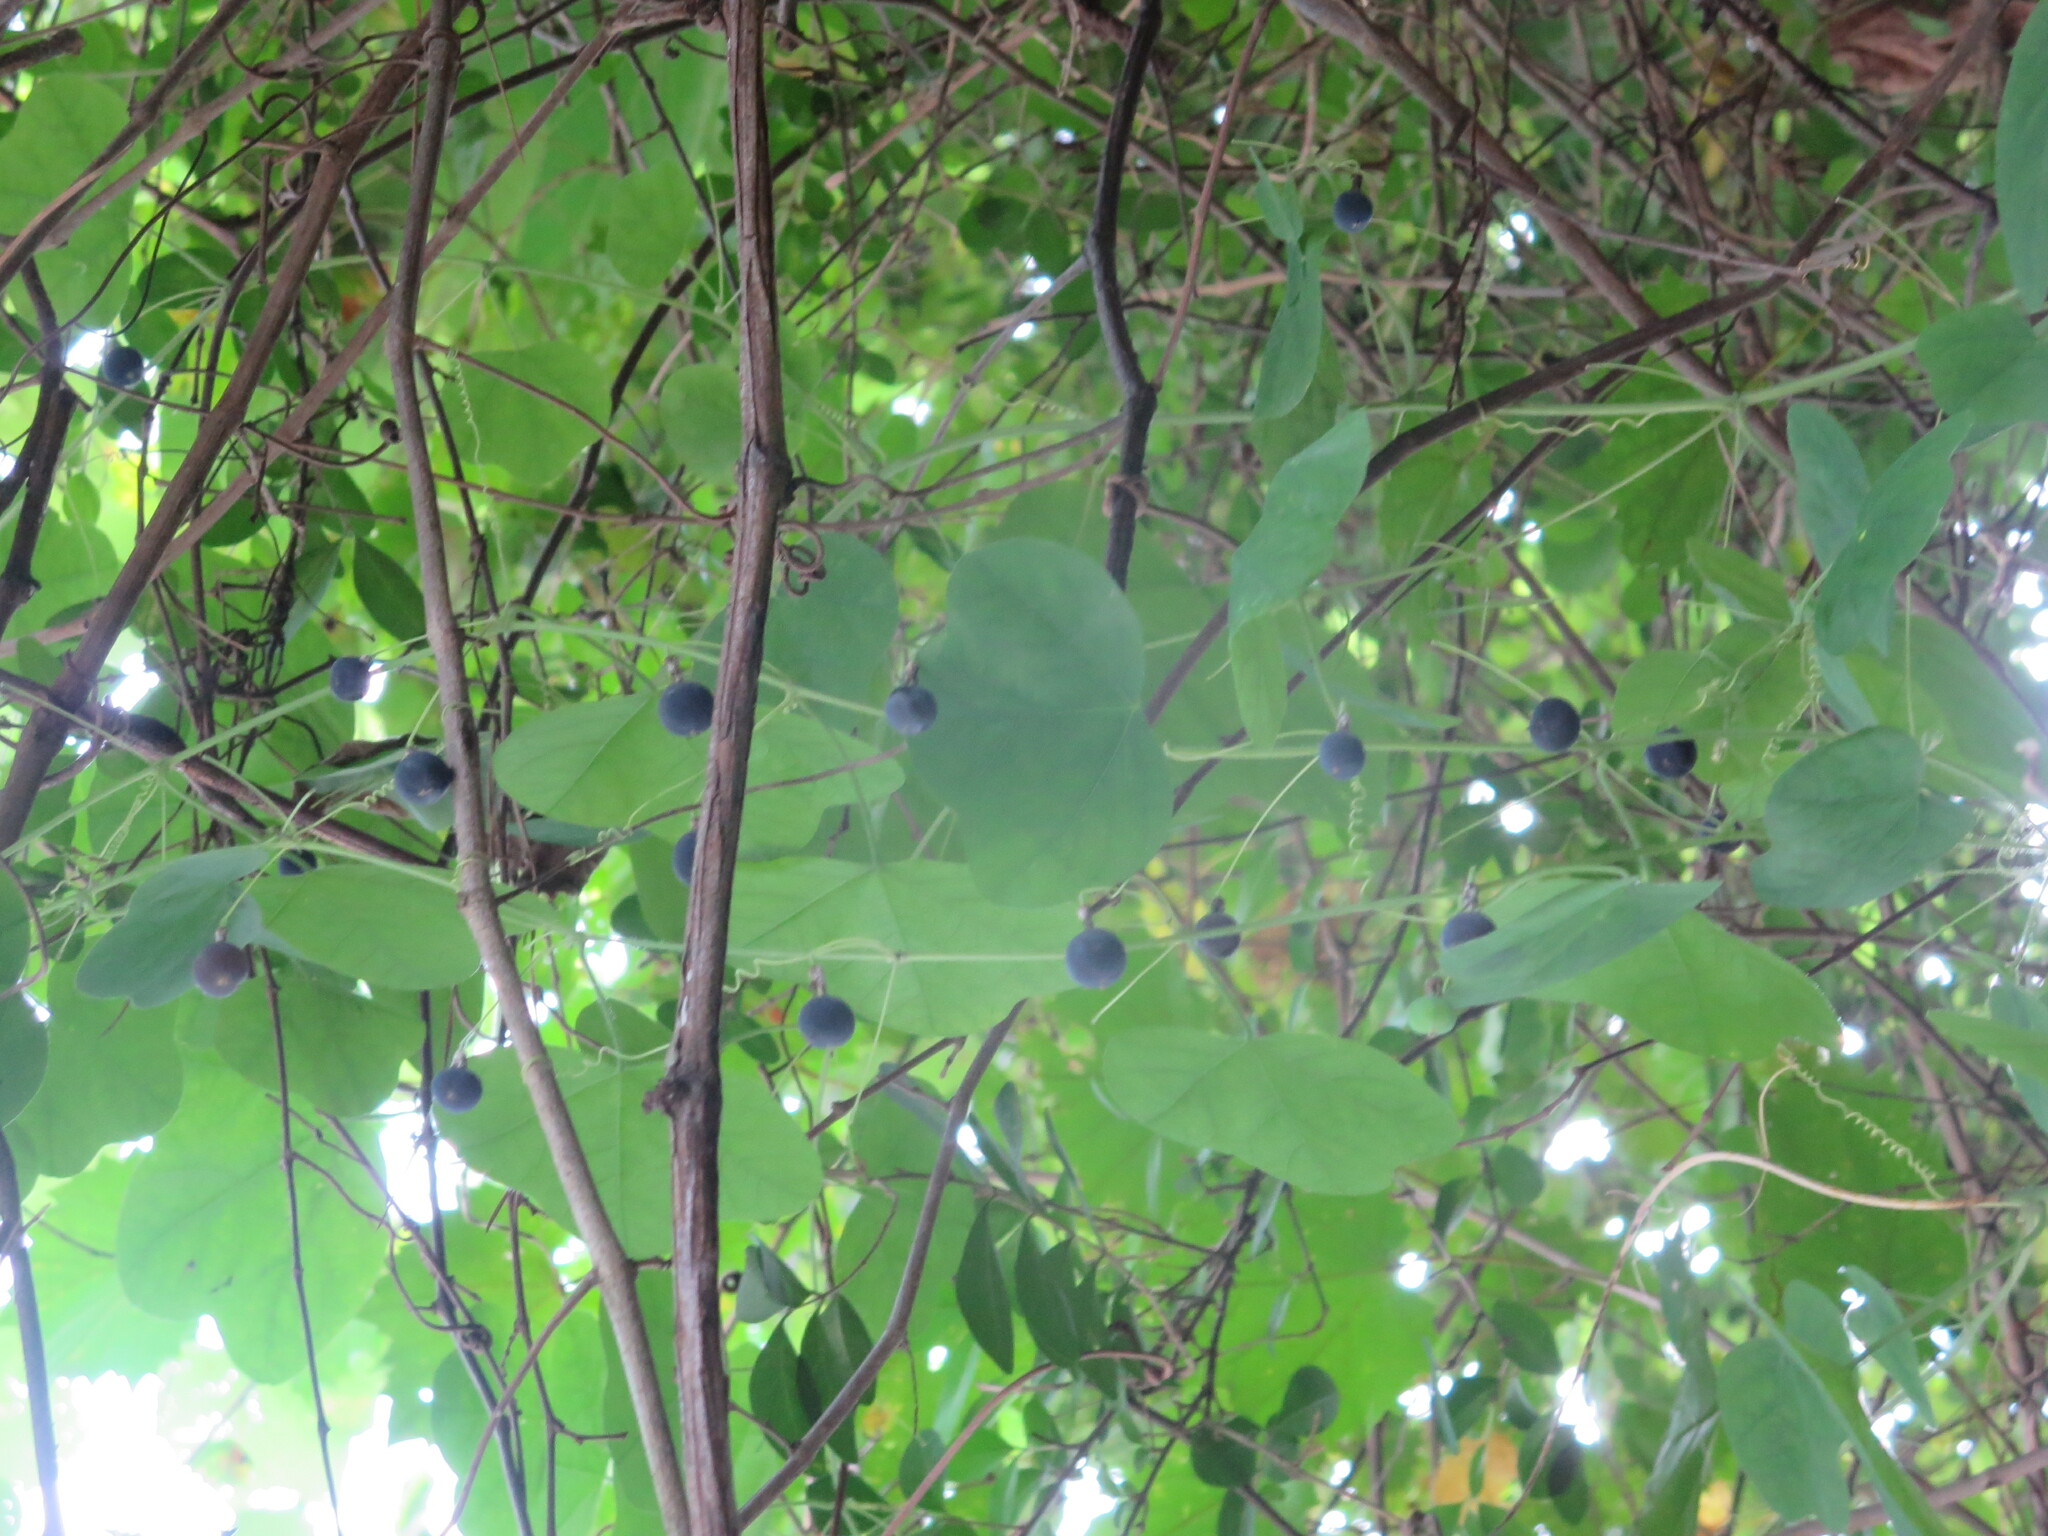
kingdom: Plantae
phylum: Tracheophyta
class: Magnoliopsida
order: Malpighiales
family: Passifloraceae
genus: Passiflora
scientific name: Passiflora lutea
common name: Yellow passionflower
